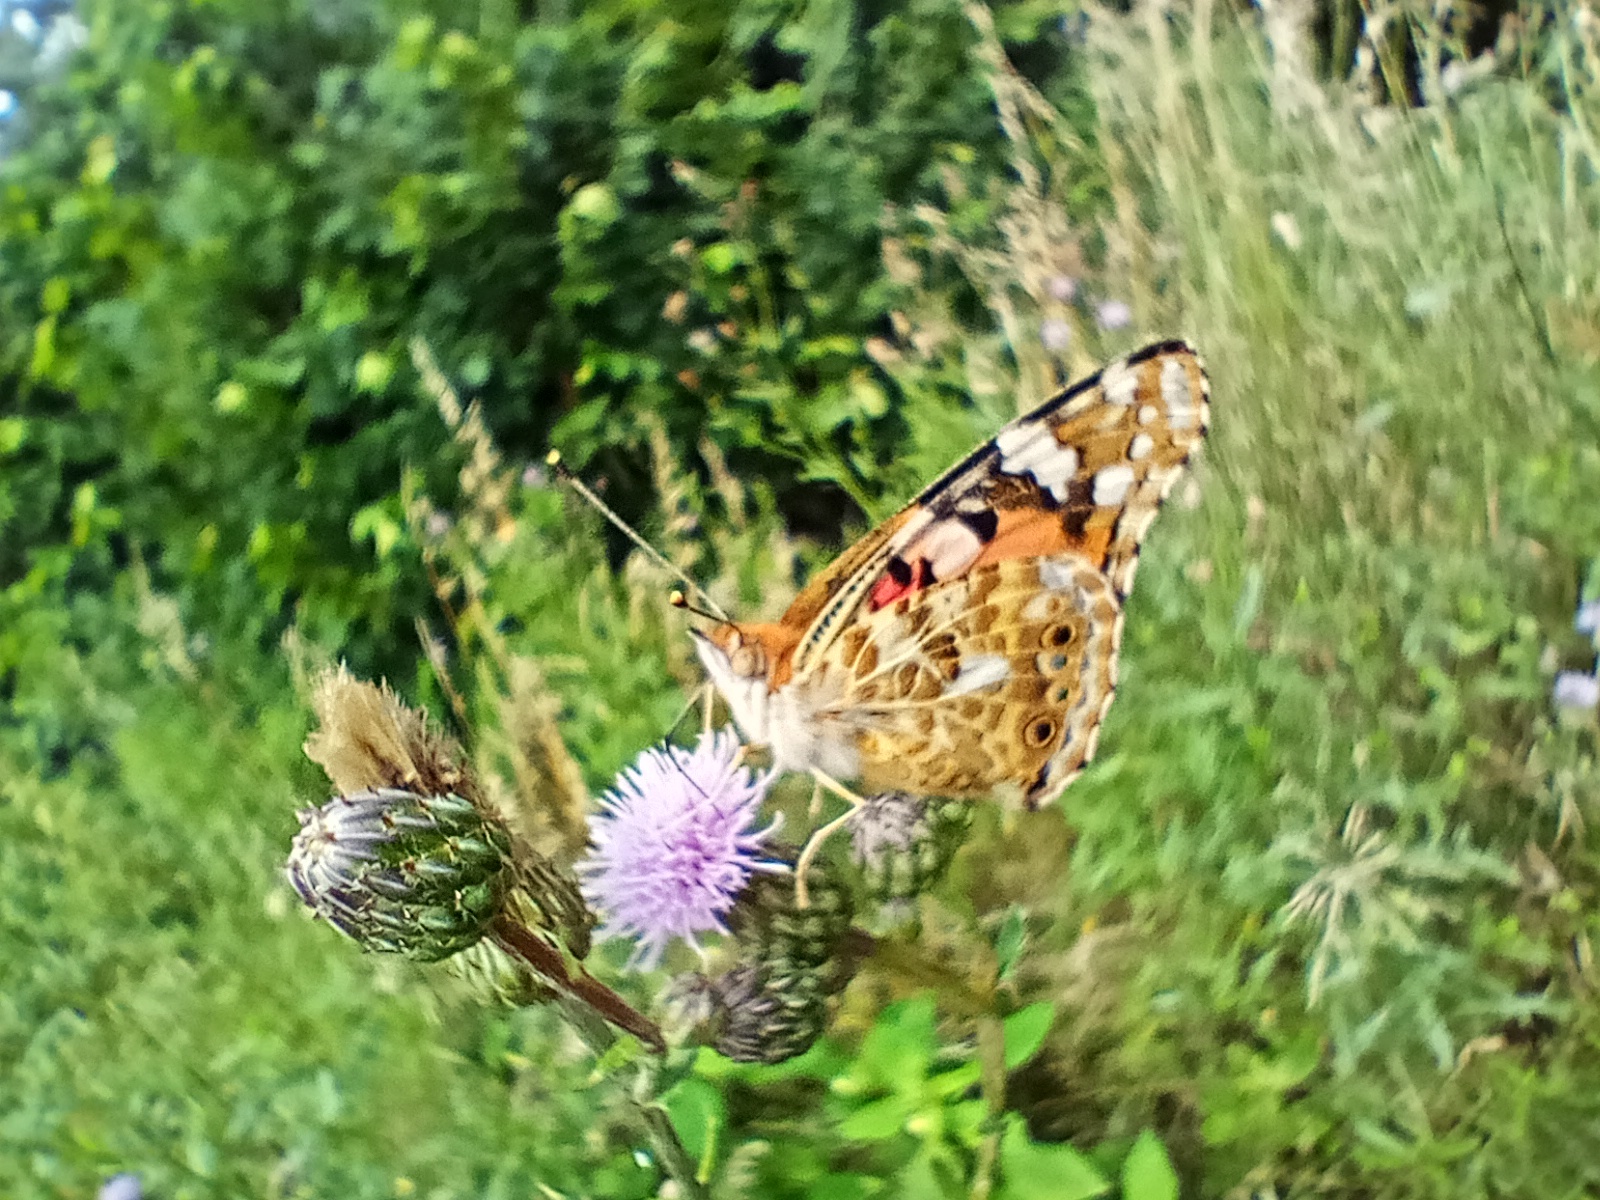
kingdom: Animalia
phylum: Arthropoda
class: Insecta
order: Lepidoptera
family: Nymphalidae
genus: Vanessa
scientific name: Vanessa cardui
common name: Painted lady
